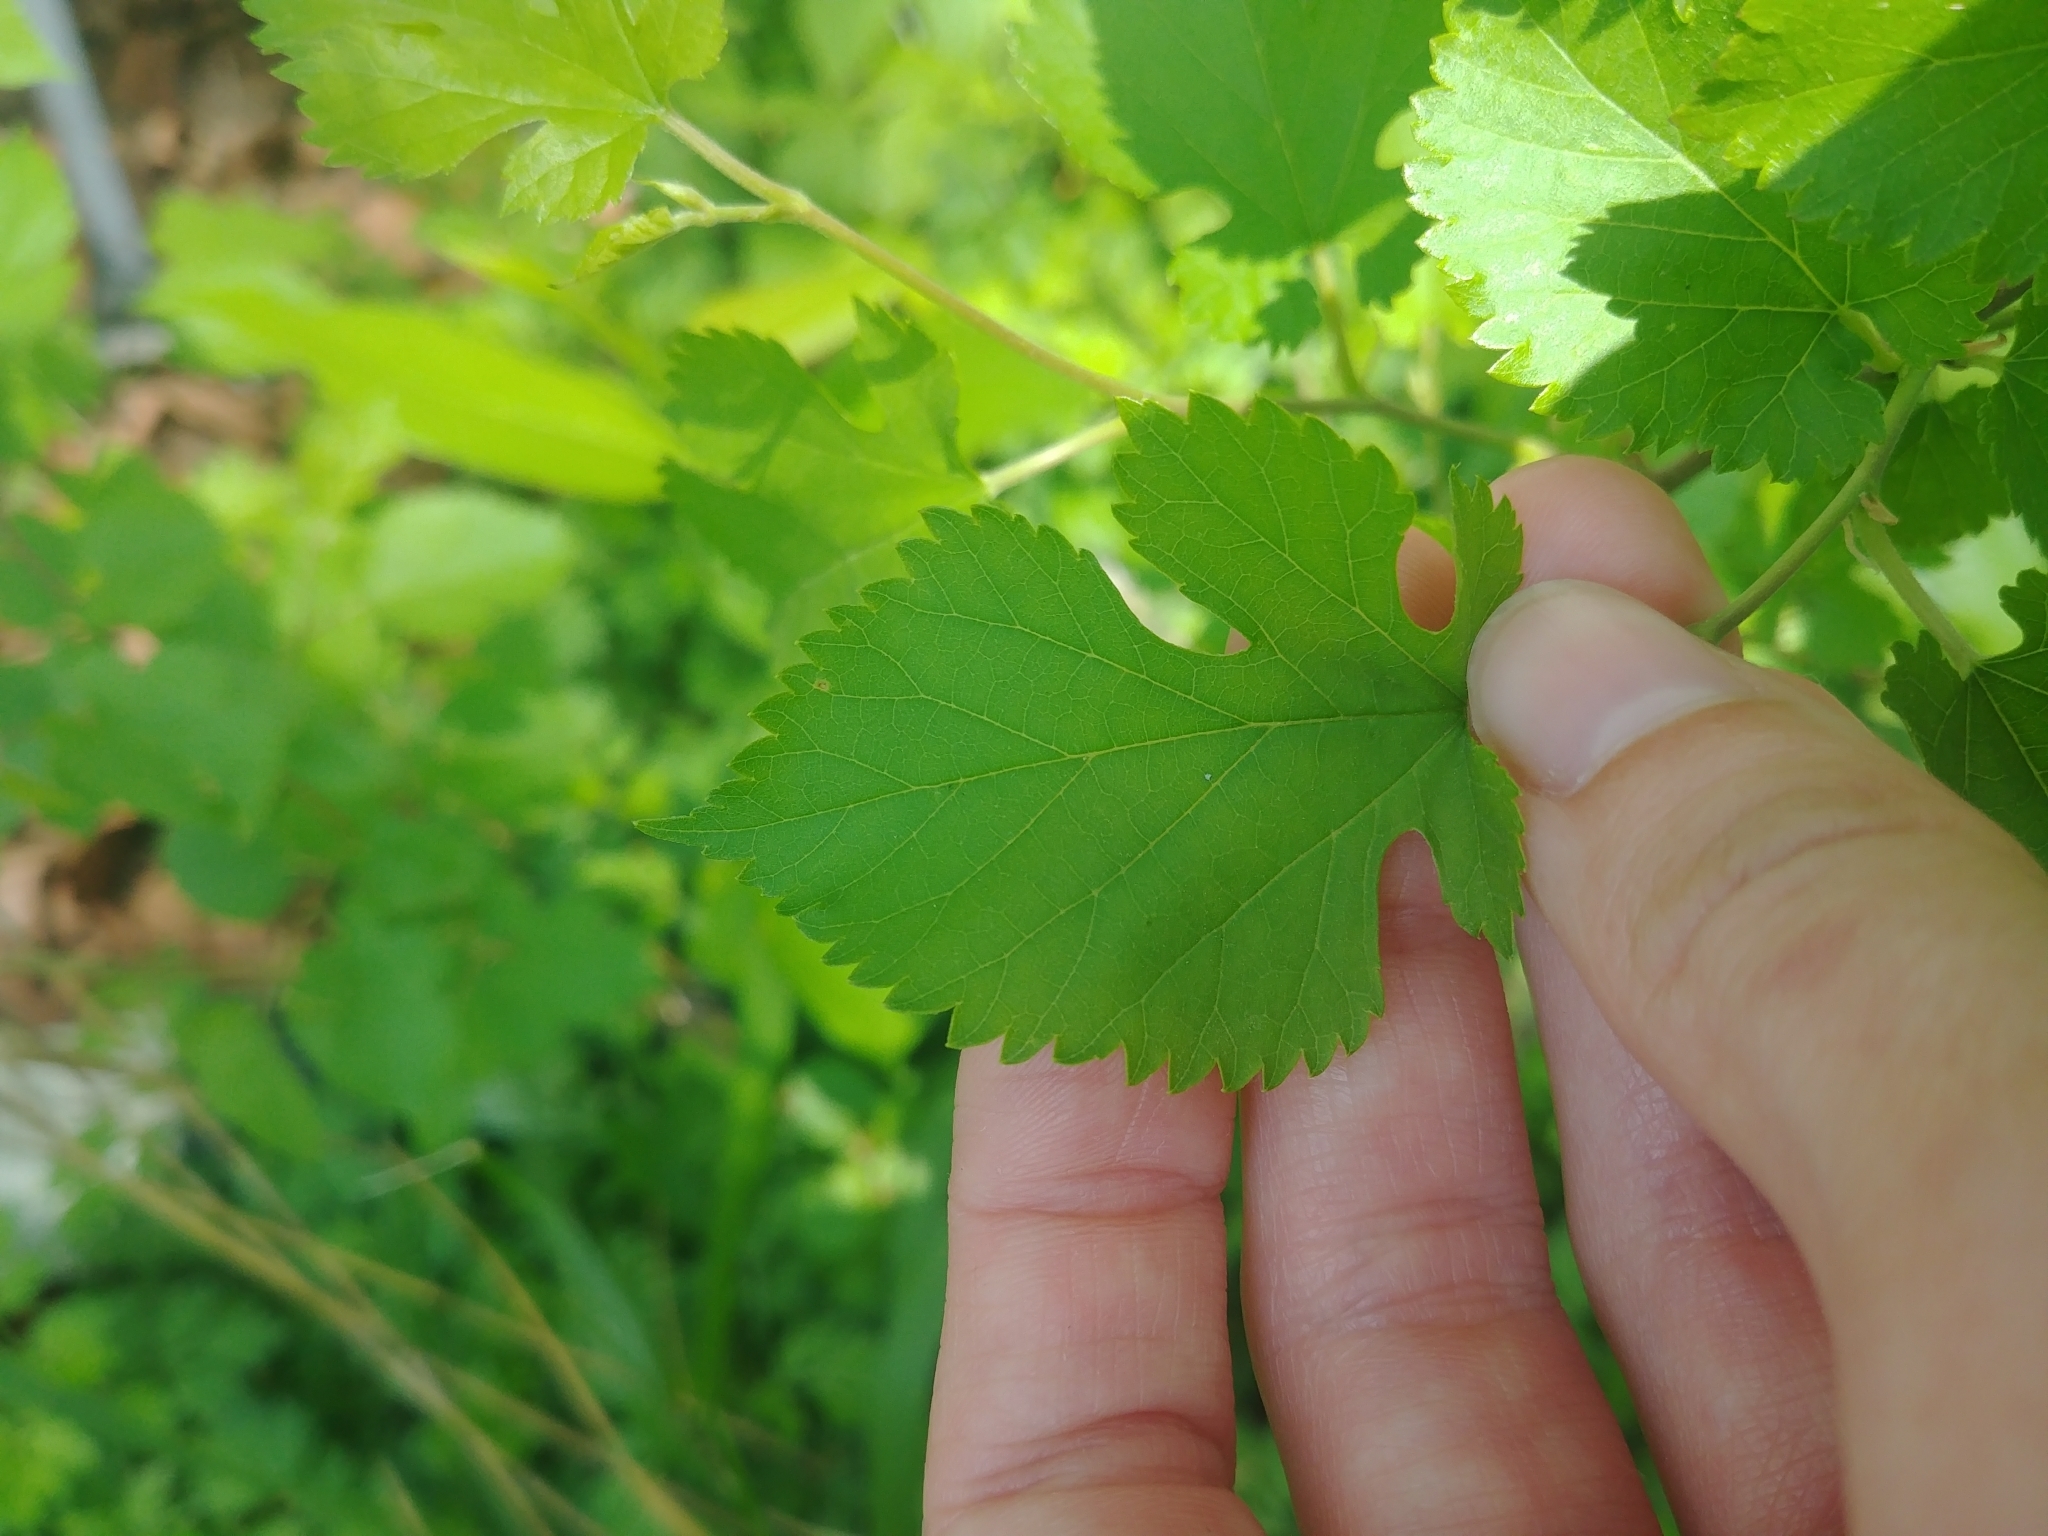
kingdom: Plantae
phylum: Tracheophyta
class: Magnoliopsida
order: Rosales
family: Moraceae
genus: Morus
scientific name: Morus alba
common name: White mulberry
